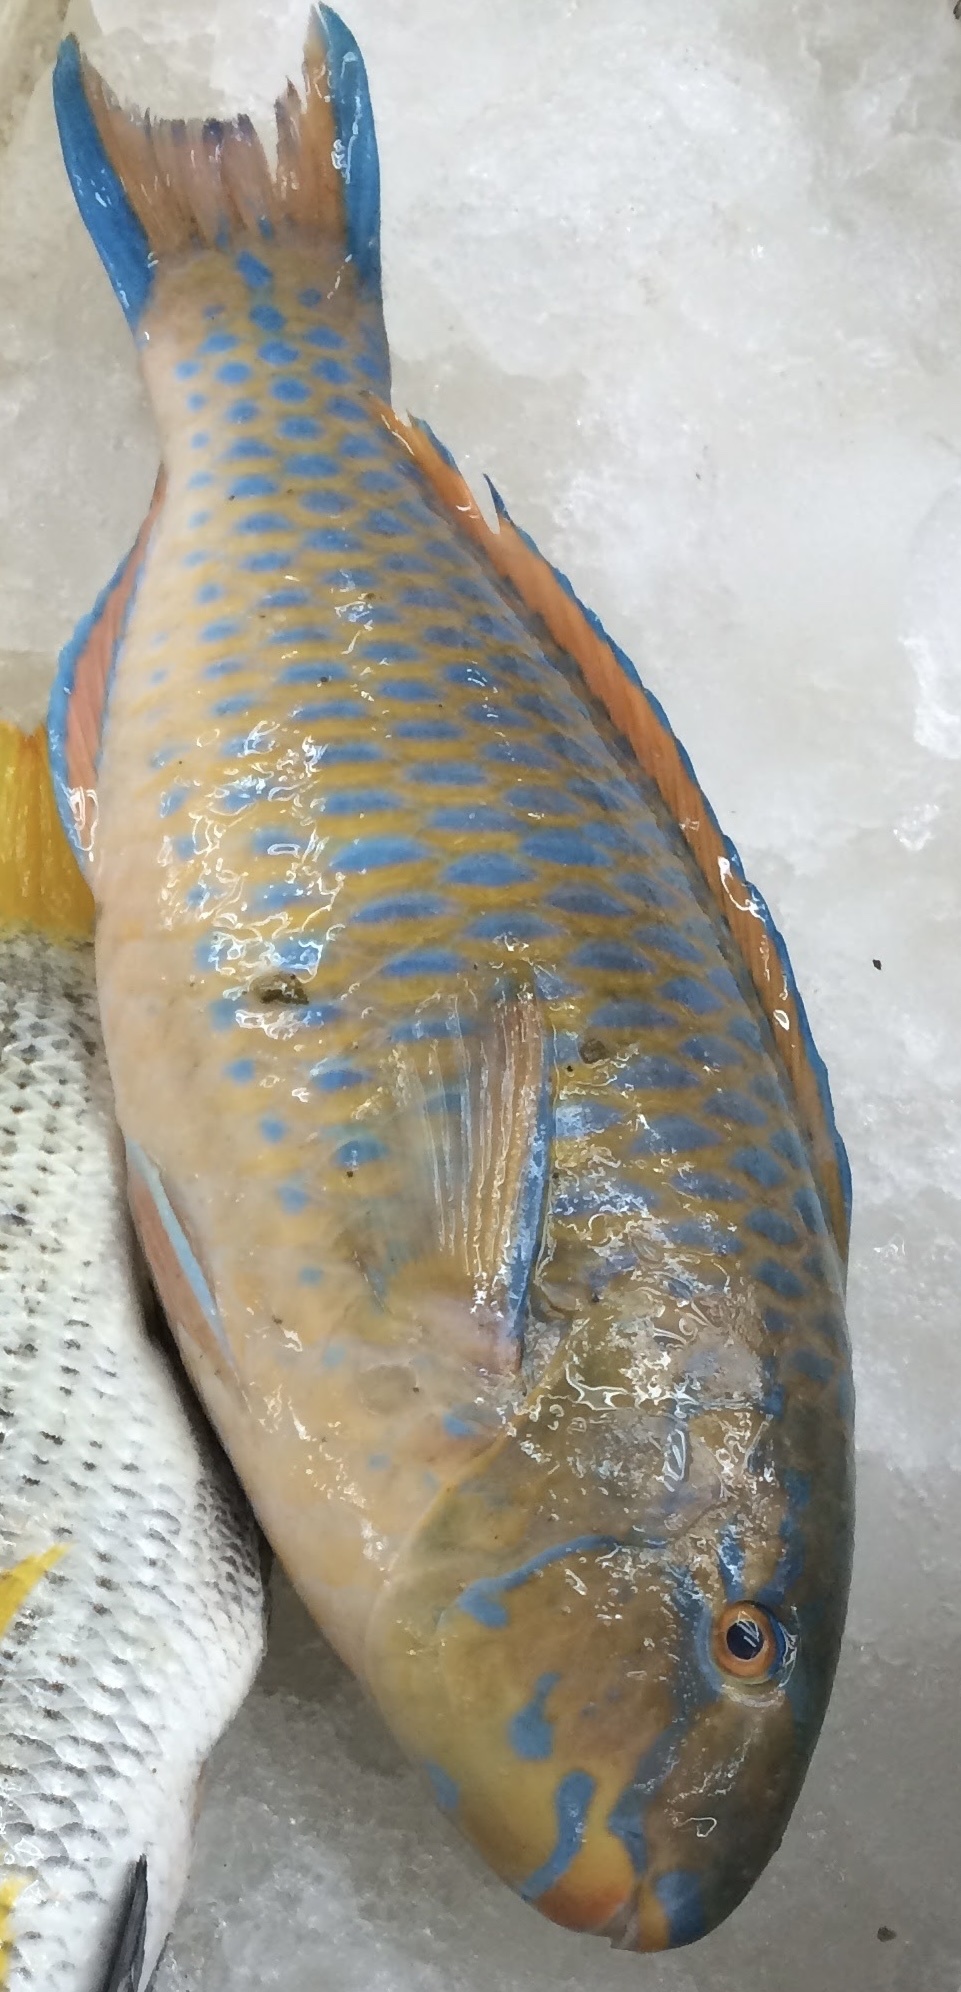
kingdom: Animalia
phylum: Chordata
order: Perciformes
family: Scaridae
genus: Scarus
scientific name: Scarus ghobban
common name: Blue-barred parrotfish
